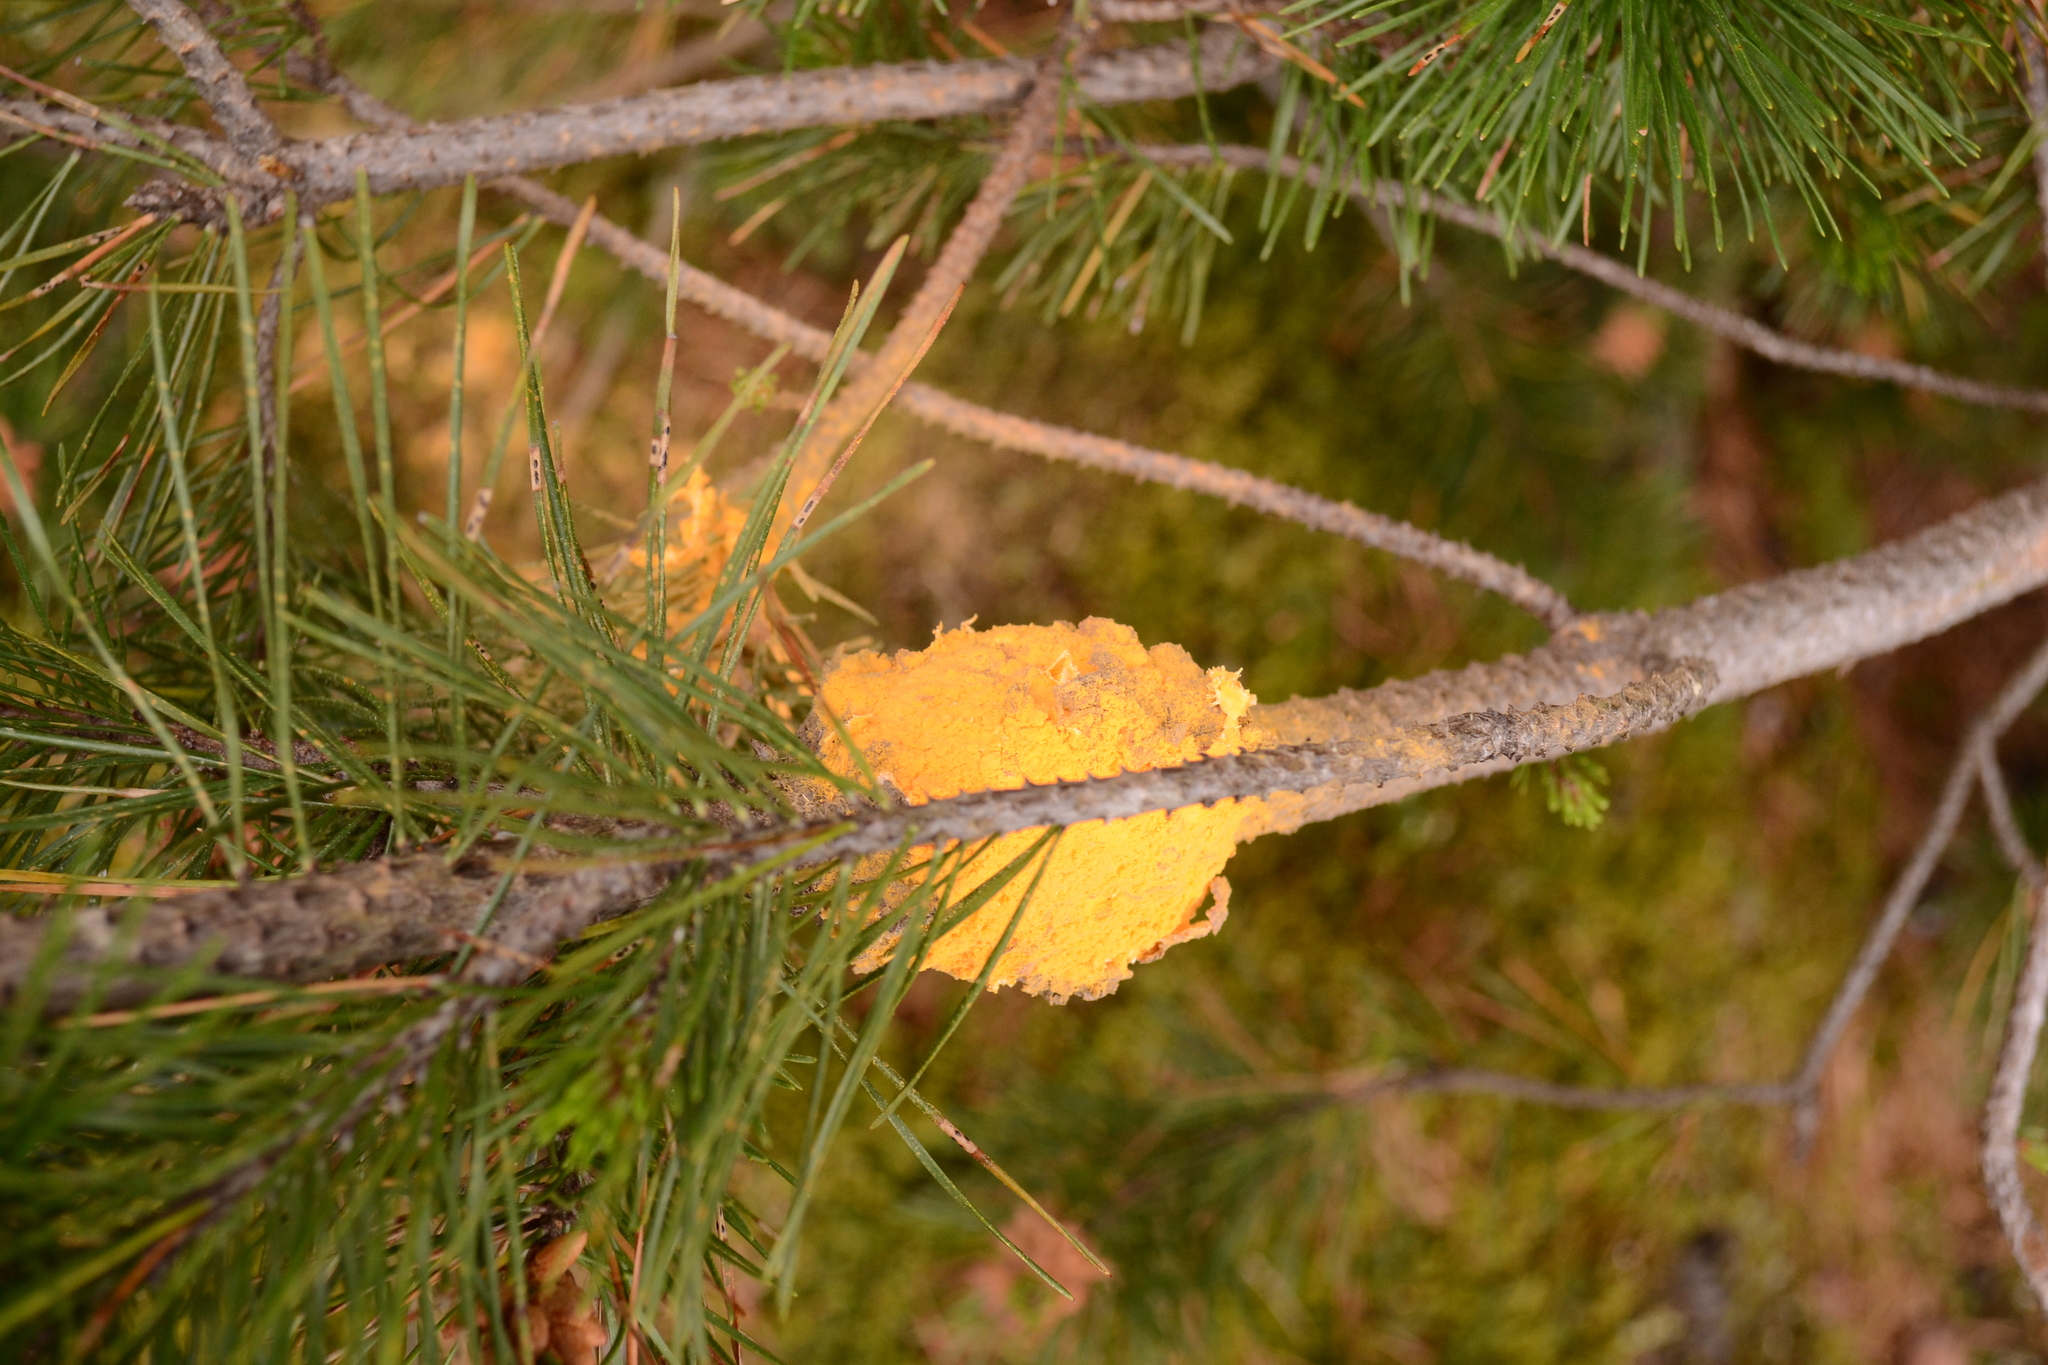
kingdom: Fungi
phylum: Basidiomycota
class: Pucciniomycetes
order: Pucciniales
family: Cronartiaceae
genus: Cronartium
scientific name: Cronartium harknessii
